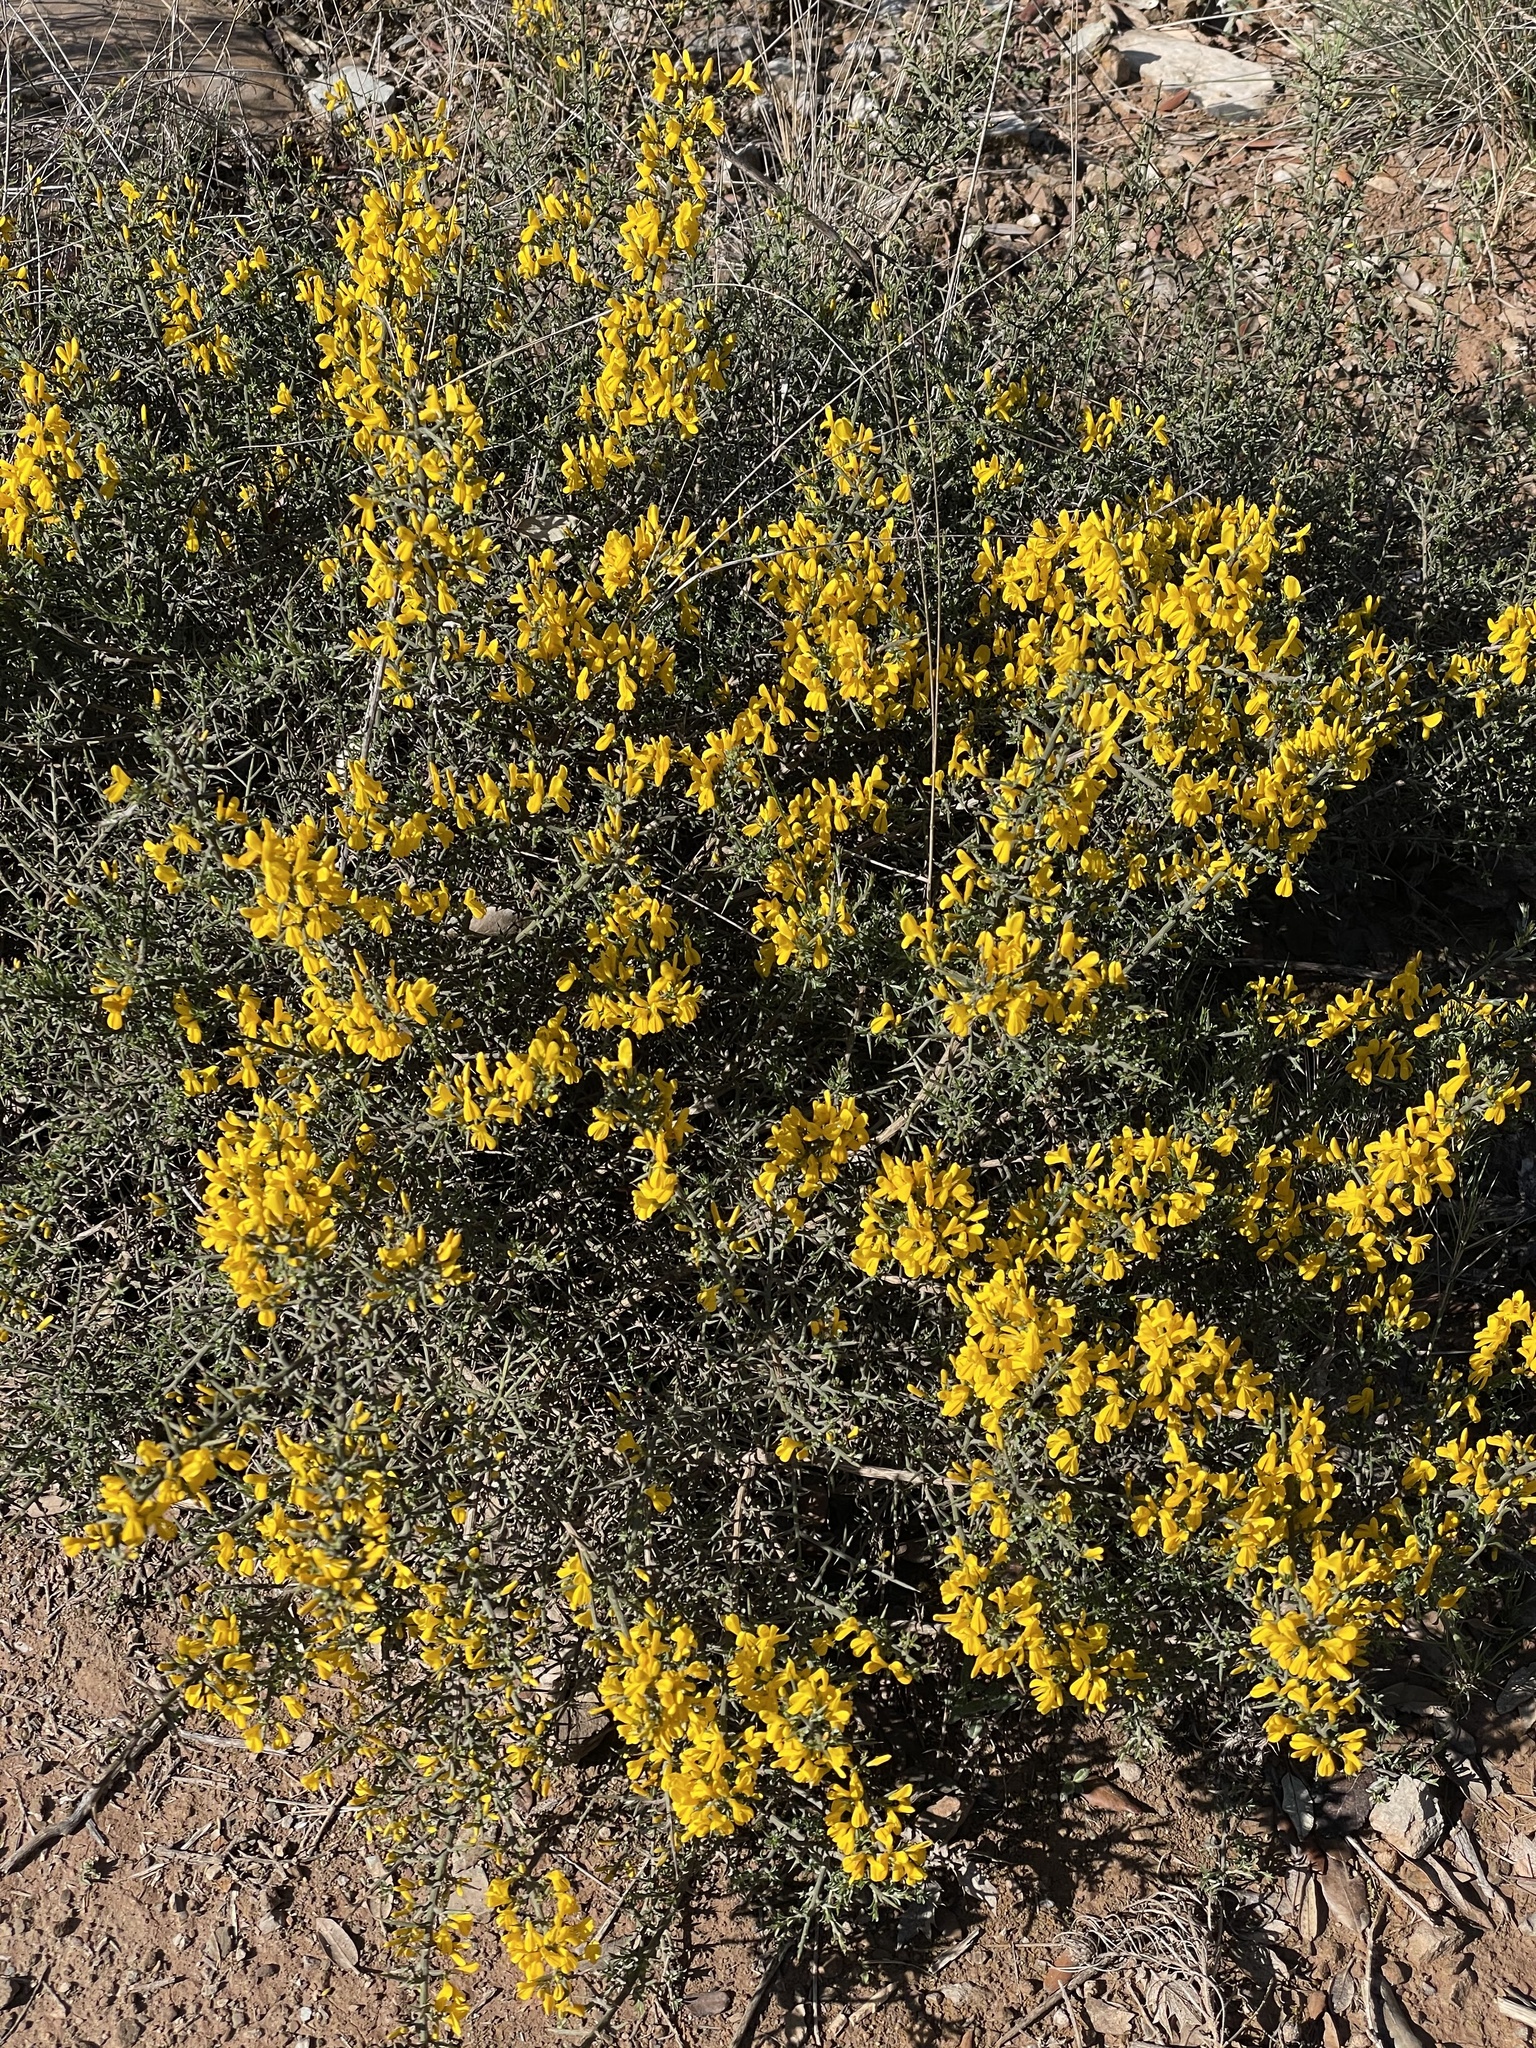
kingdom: Plantae
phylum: Tracheophyta
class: Magnoliopsida
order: Fabales
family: Fabaceae
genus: Genista
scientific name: Genista scorpius
